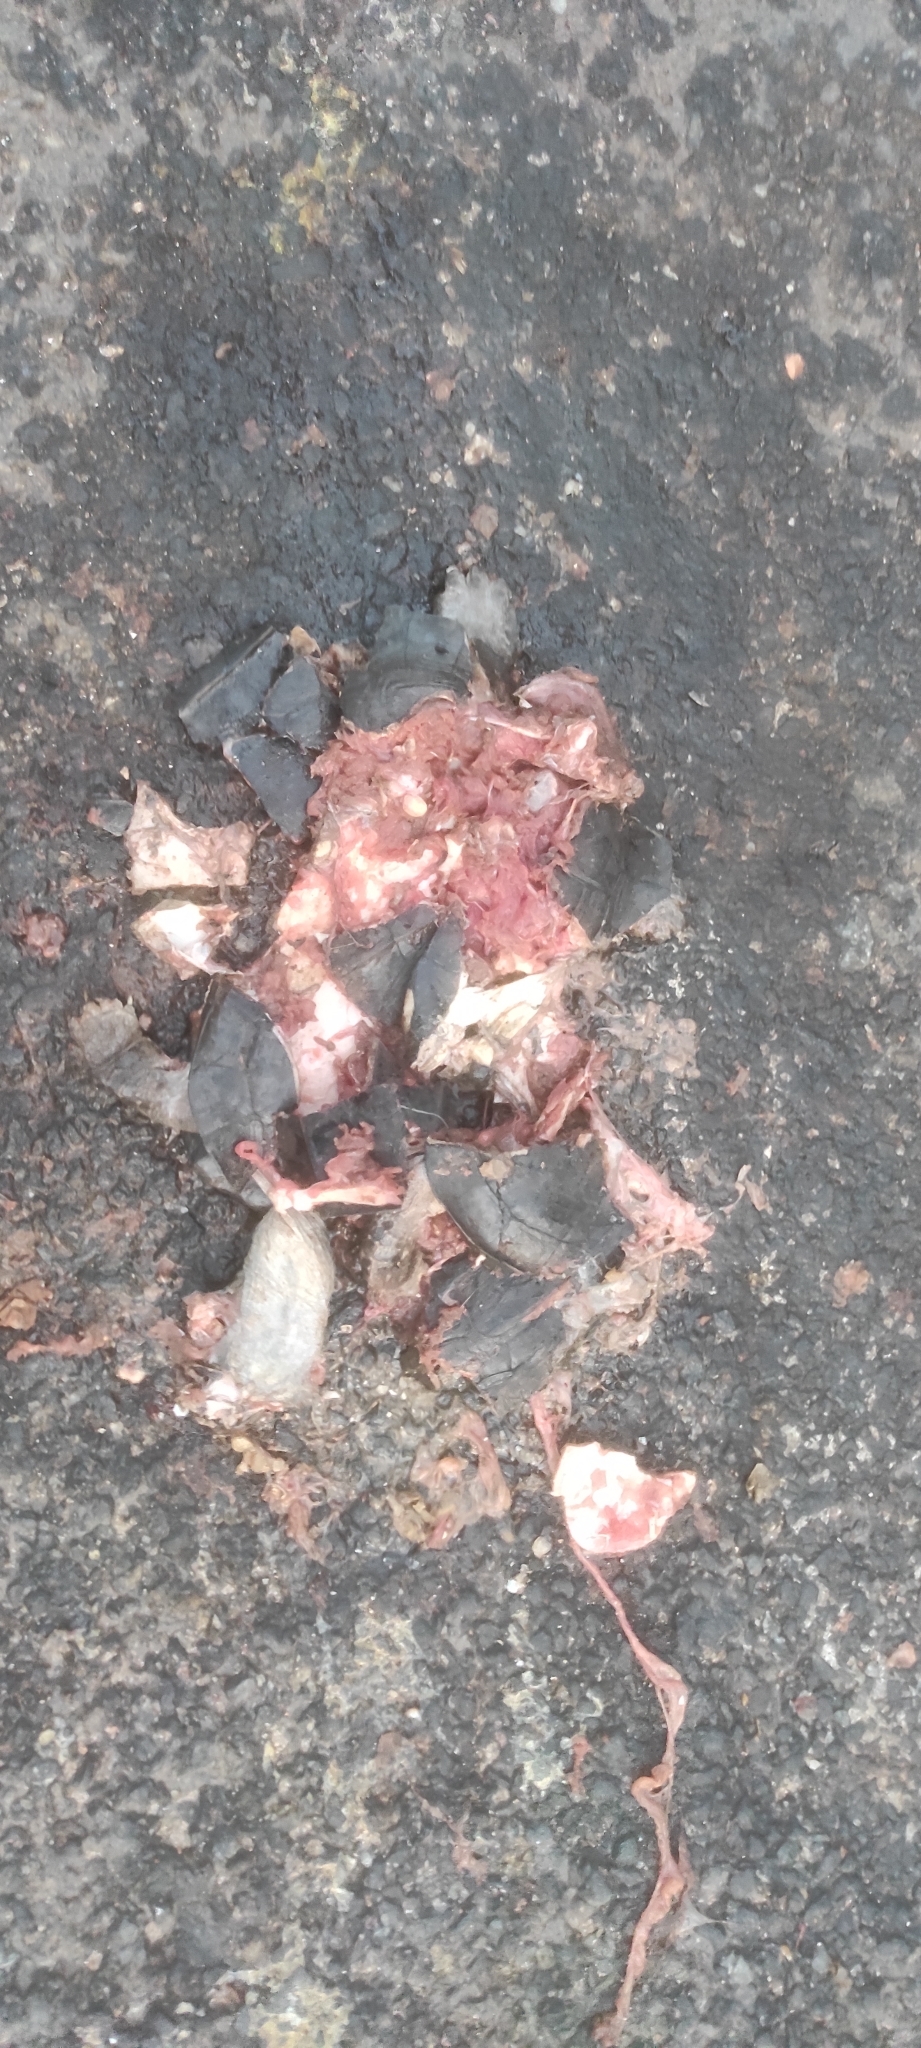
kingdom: Animalia
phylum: Chordata
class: Testudines
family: Geoemydidae
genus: Melanochelys
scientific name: Melanochelys trijuga
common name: Indian black turtle
